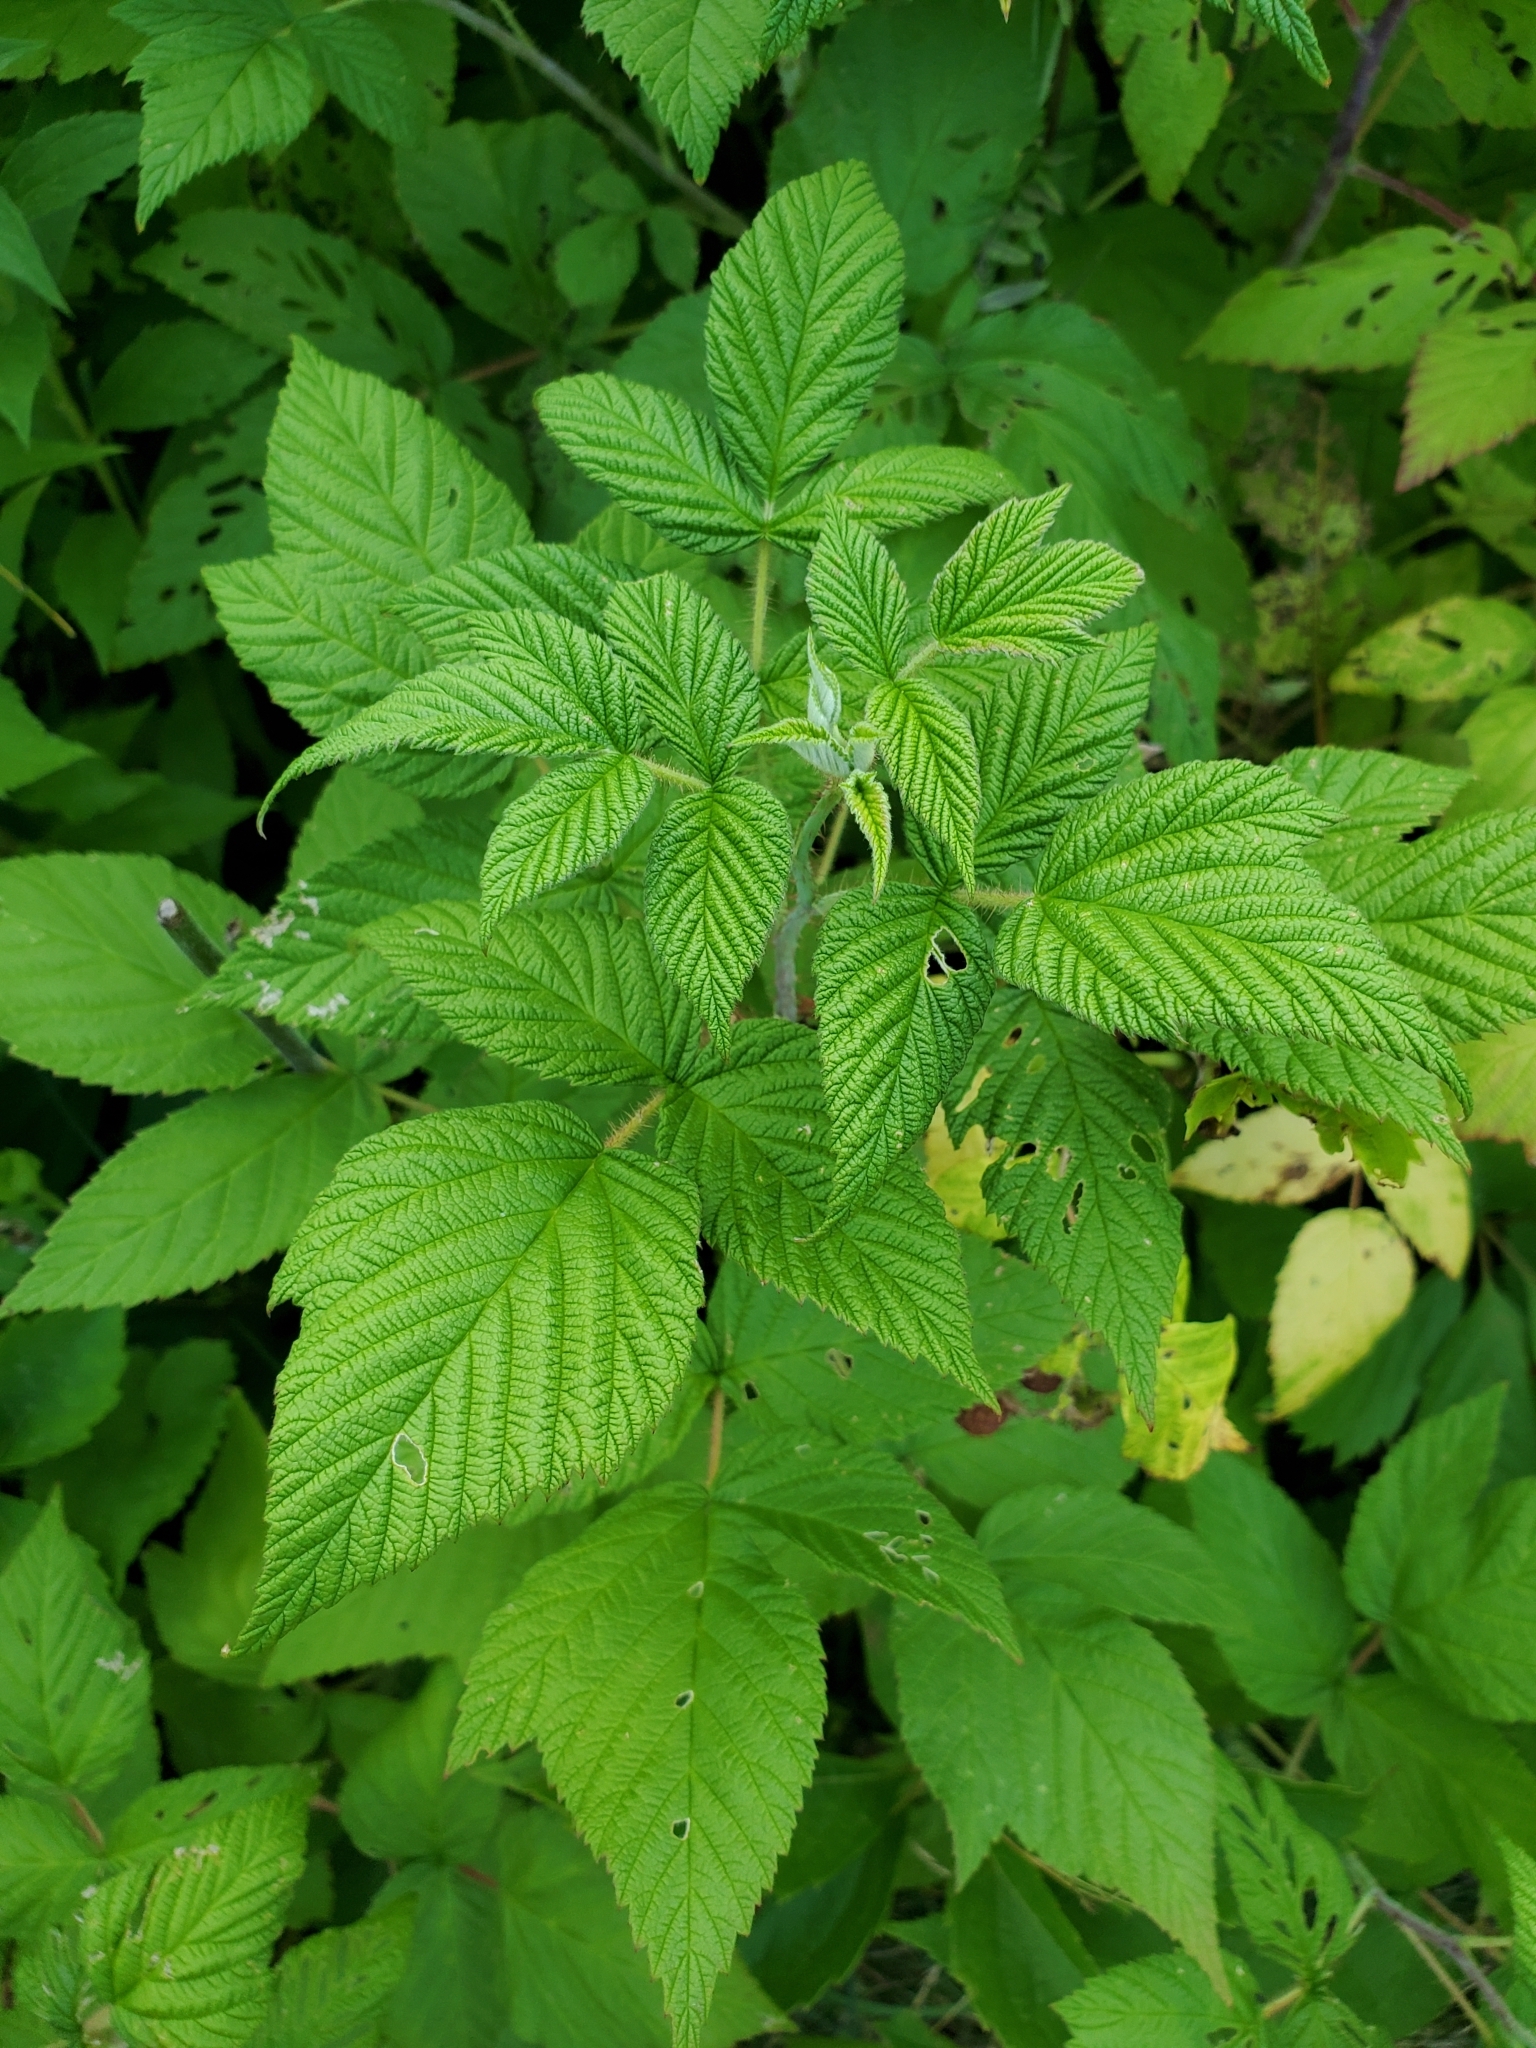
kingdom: Plantae
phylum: Tracheophyta
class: Magnoliopsida
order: Rosales
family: Rosaceae
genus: Rubus
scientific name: Rubus idaeus
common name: Raspberry
